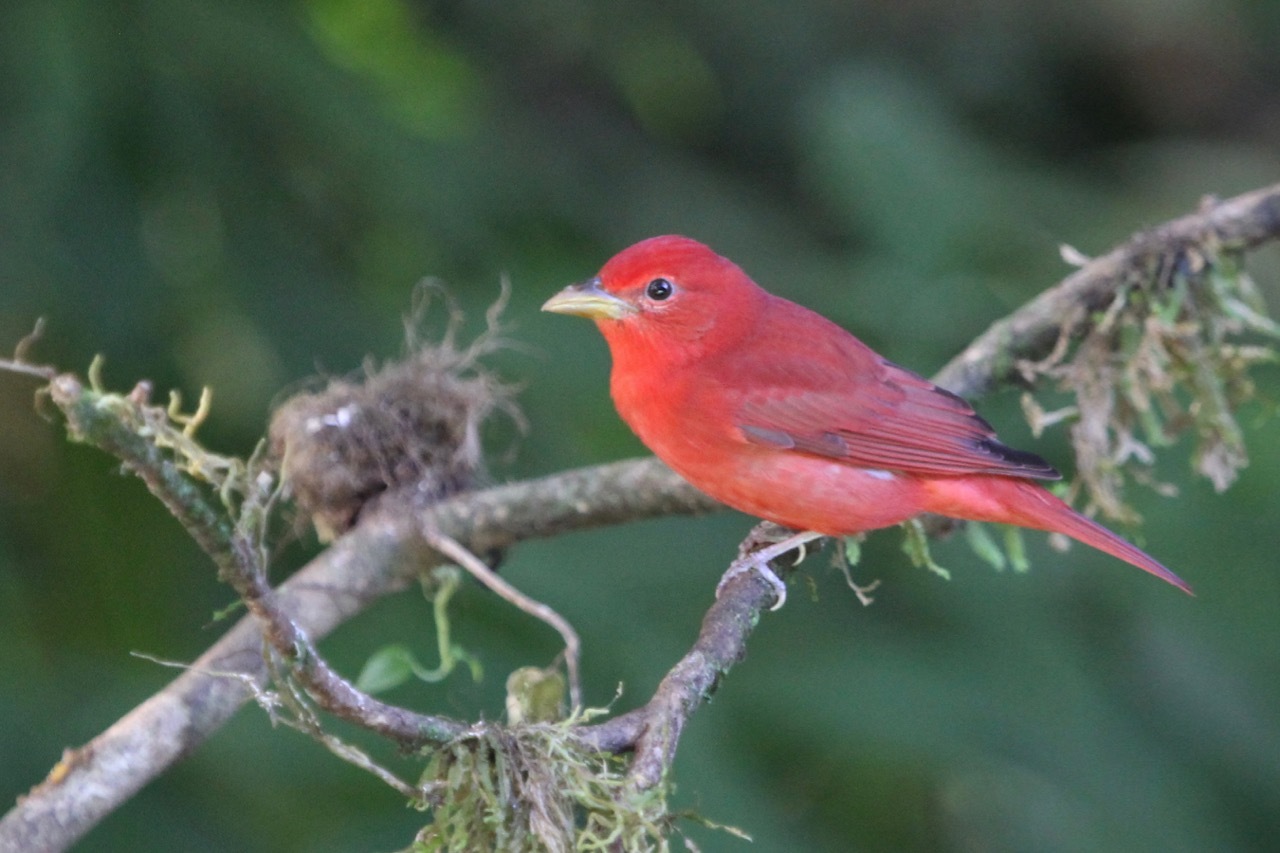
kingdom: Animalia
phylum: Chordata
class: Aves
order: Passeriformes
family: Cardinalidae
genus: Piranga
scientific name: Piranga rubra
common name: Summer tanager
